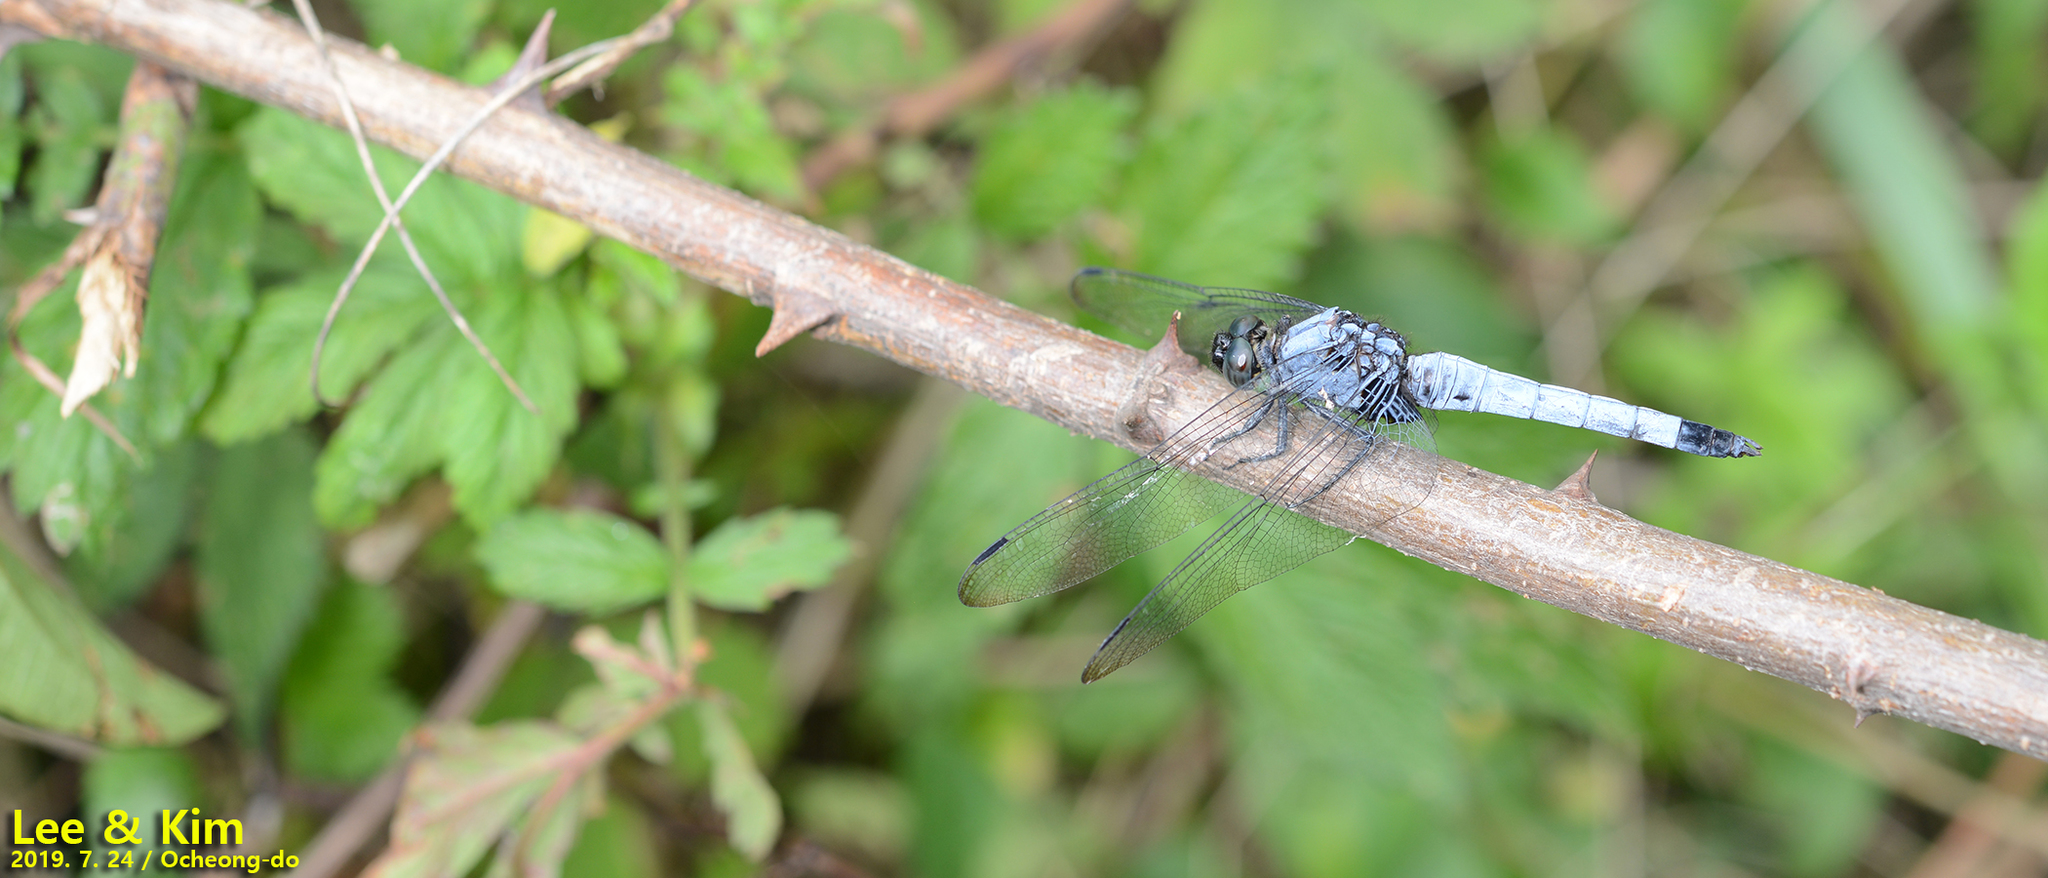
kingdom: Animalia
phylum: Arthropoda
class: Insecta
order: Odonata
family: Libellulidae
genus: Orthetrum
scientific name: Orthetrum melania
